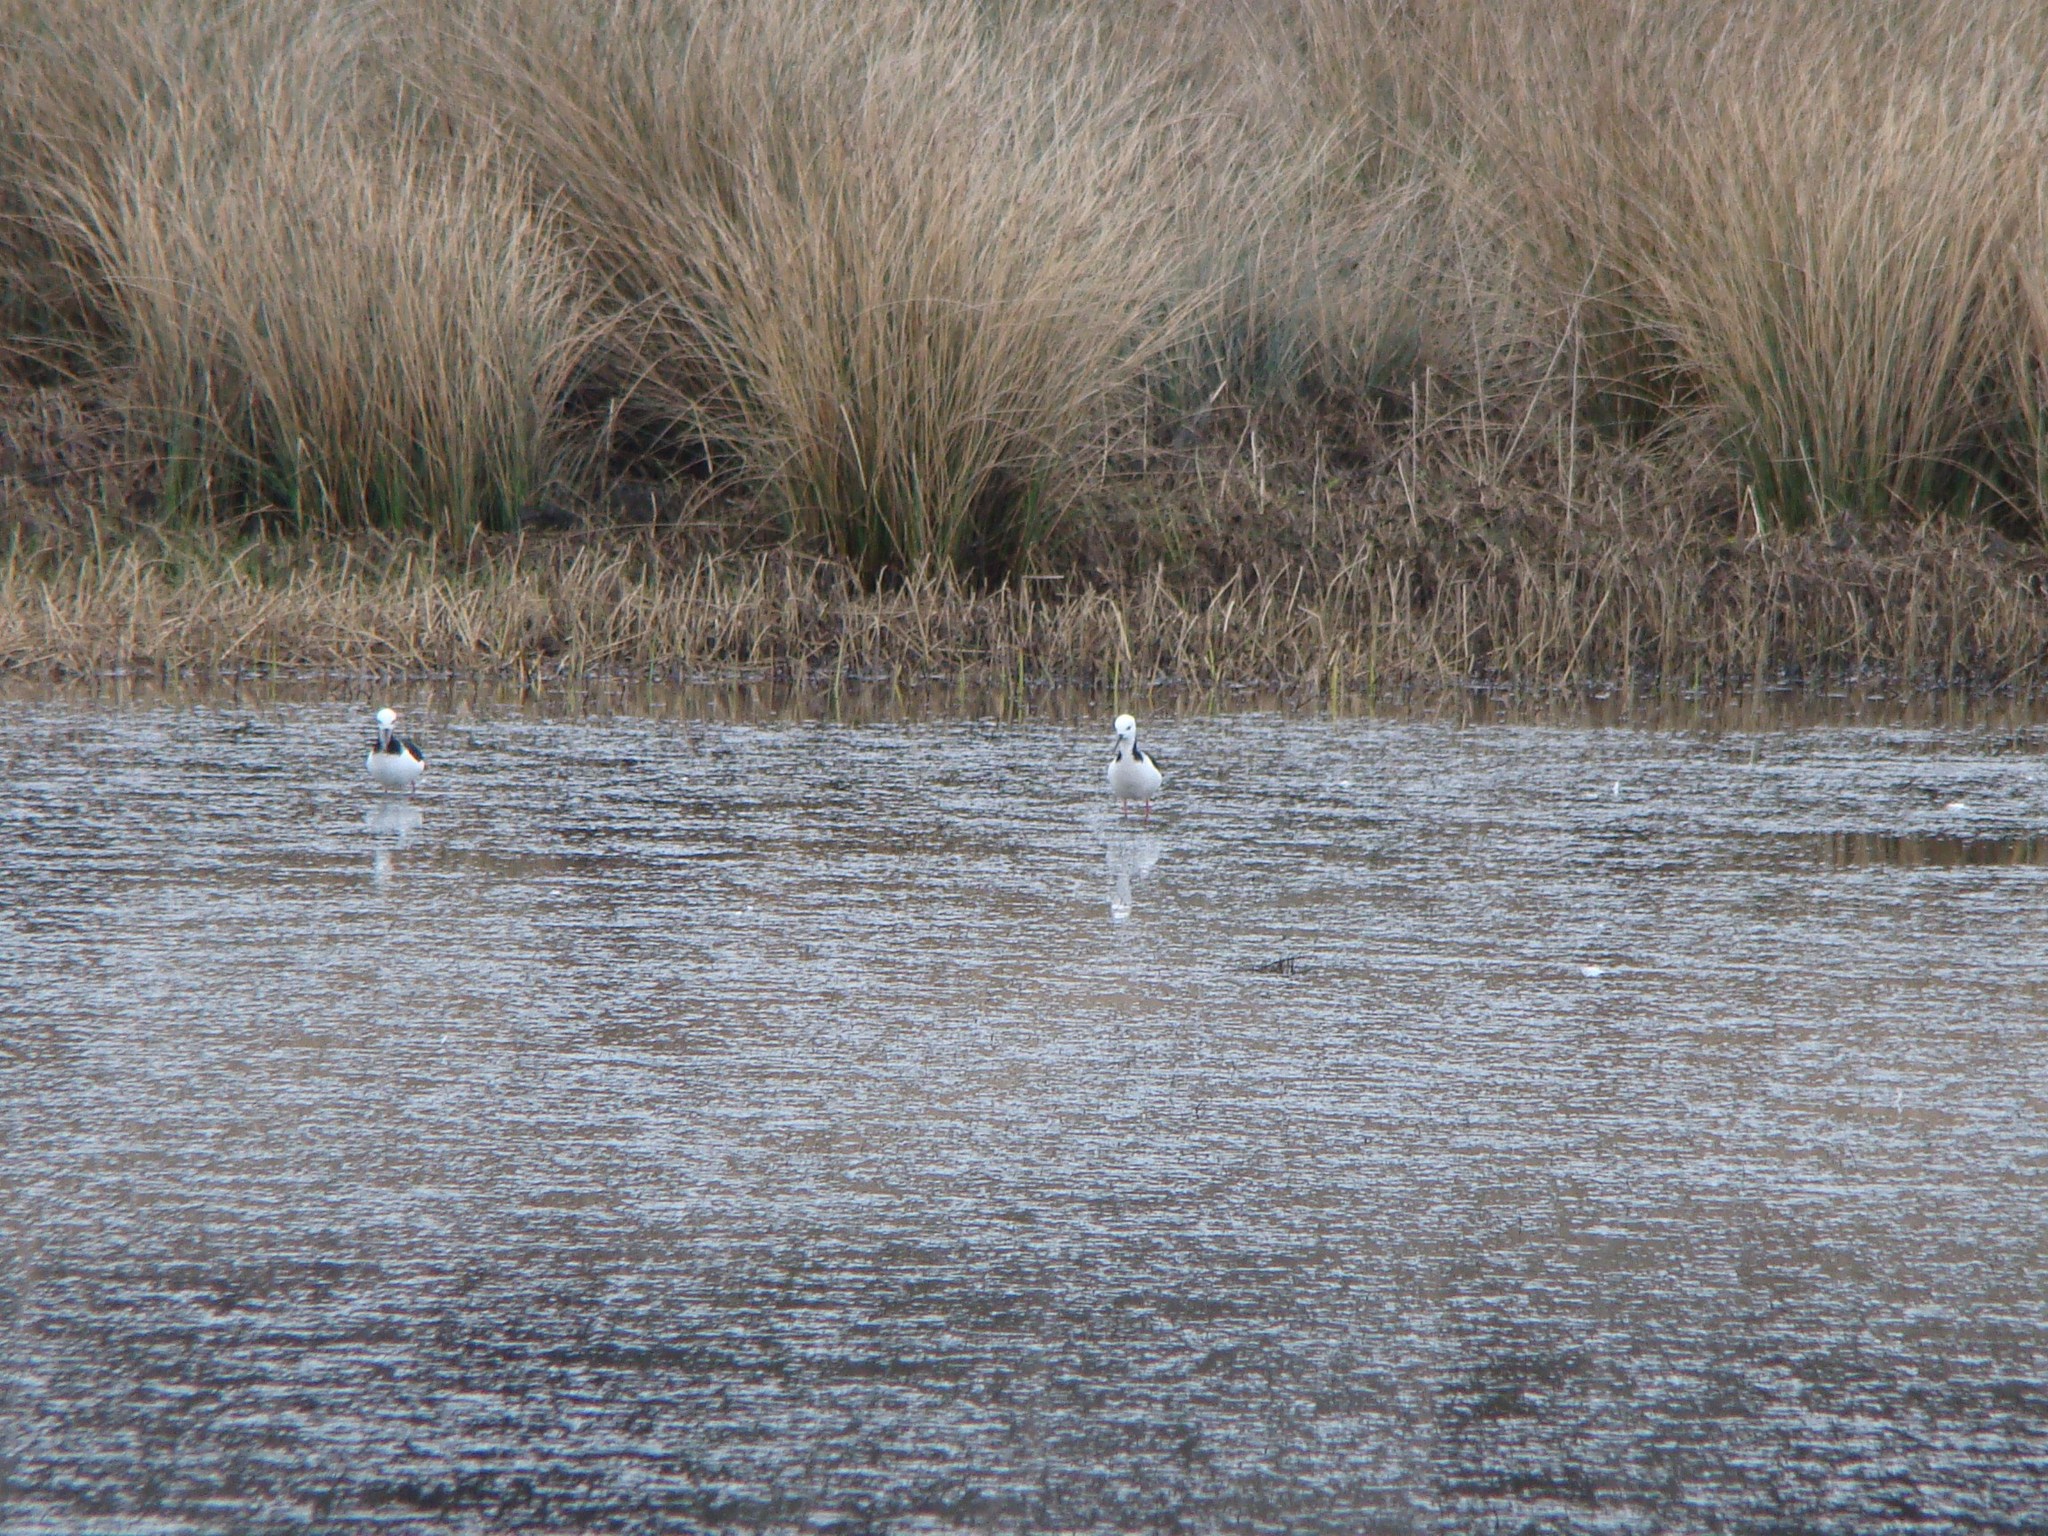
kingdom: Animalia
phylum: Chordata
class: Aves
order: Charadriiformes
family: Recurvirostridae
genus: Himantopus
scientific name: Himantopus leucocephalus
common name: White-headed stilt
